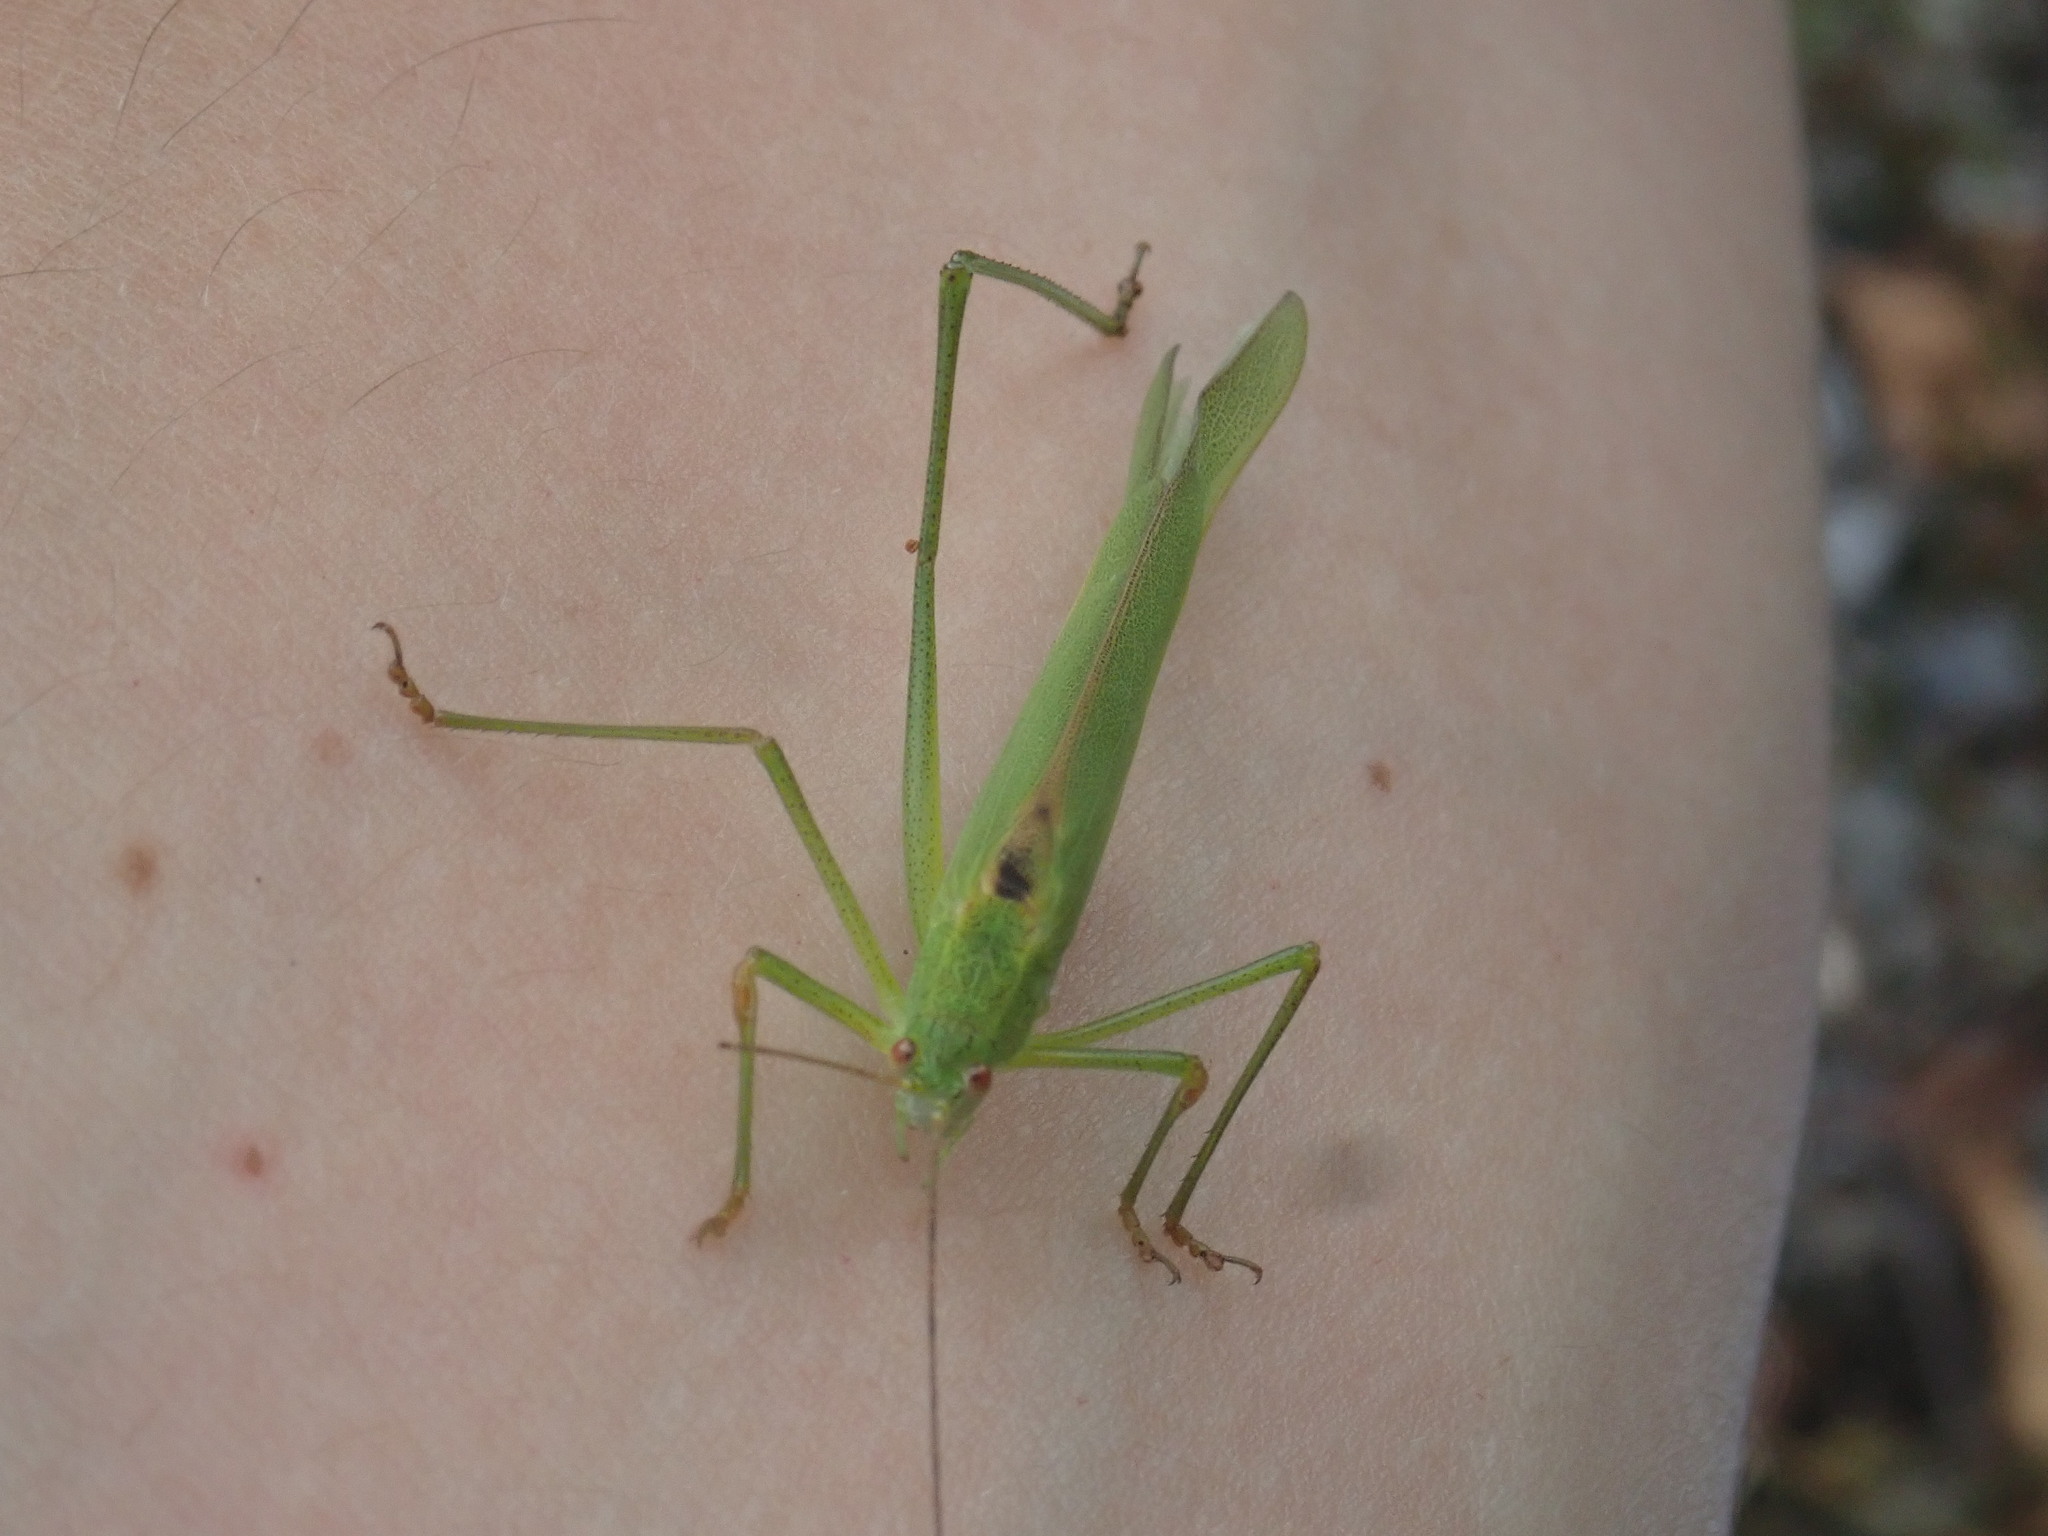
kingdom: Animalia
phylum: Arthropoda
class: Insecta
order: Orthoptera
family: Tettigoniidae
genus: Phaneroptera
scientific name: Phaneroptera falcata
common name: Sickle-bearing bush-cricket
